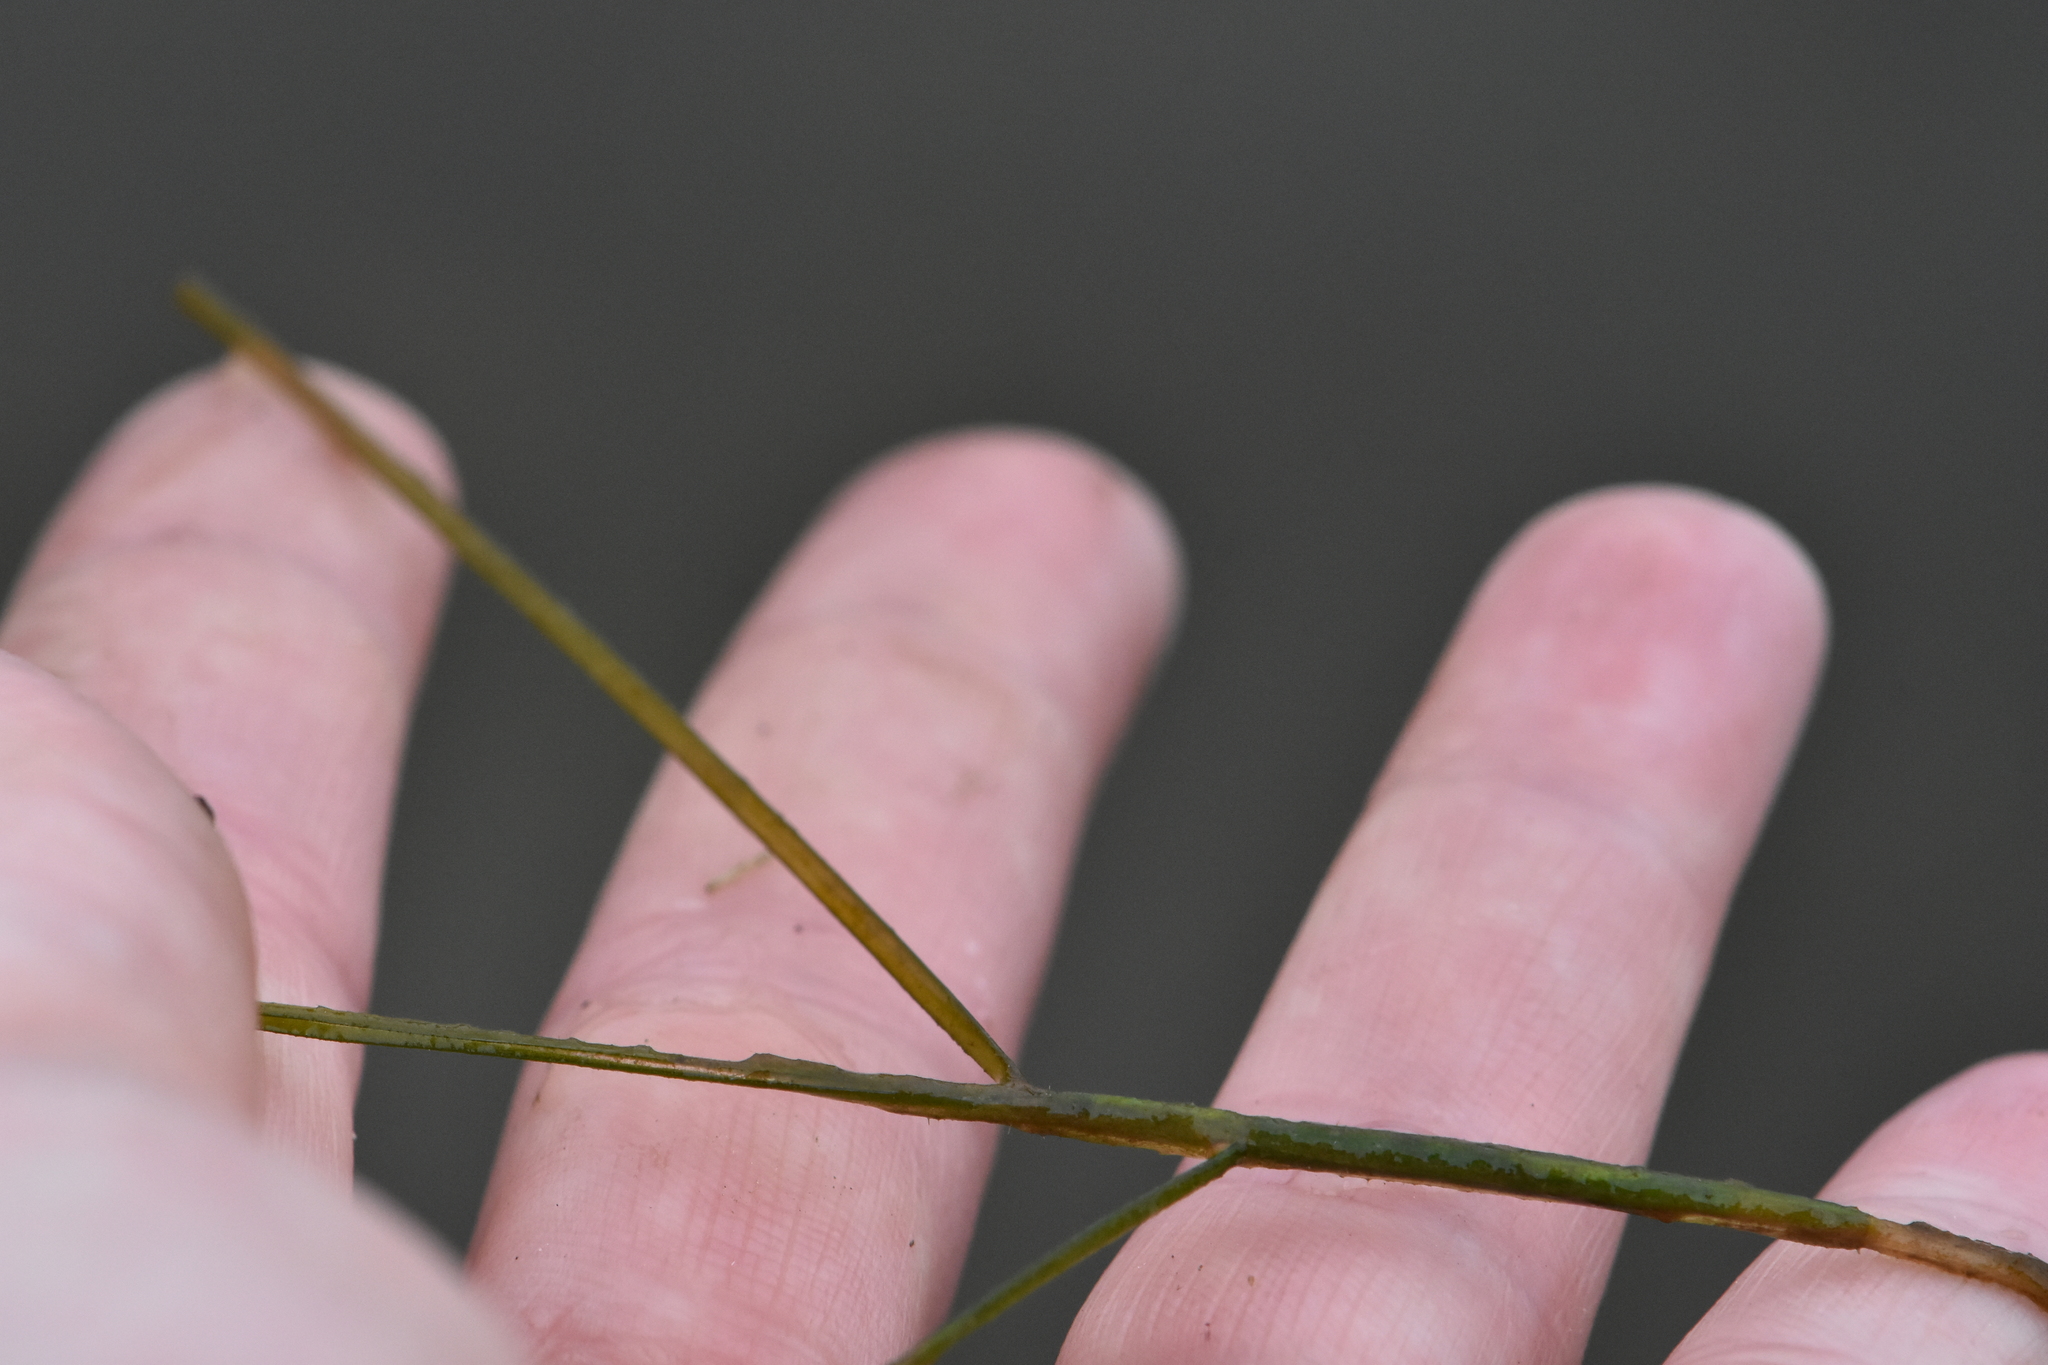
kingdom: Plantae
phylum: Tracheophyta
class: Liliopsida
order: Alismatales
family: Potamogetonaceae
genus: Stuckenia
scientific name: Stuckenia pectinata
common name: Sago pondweed
